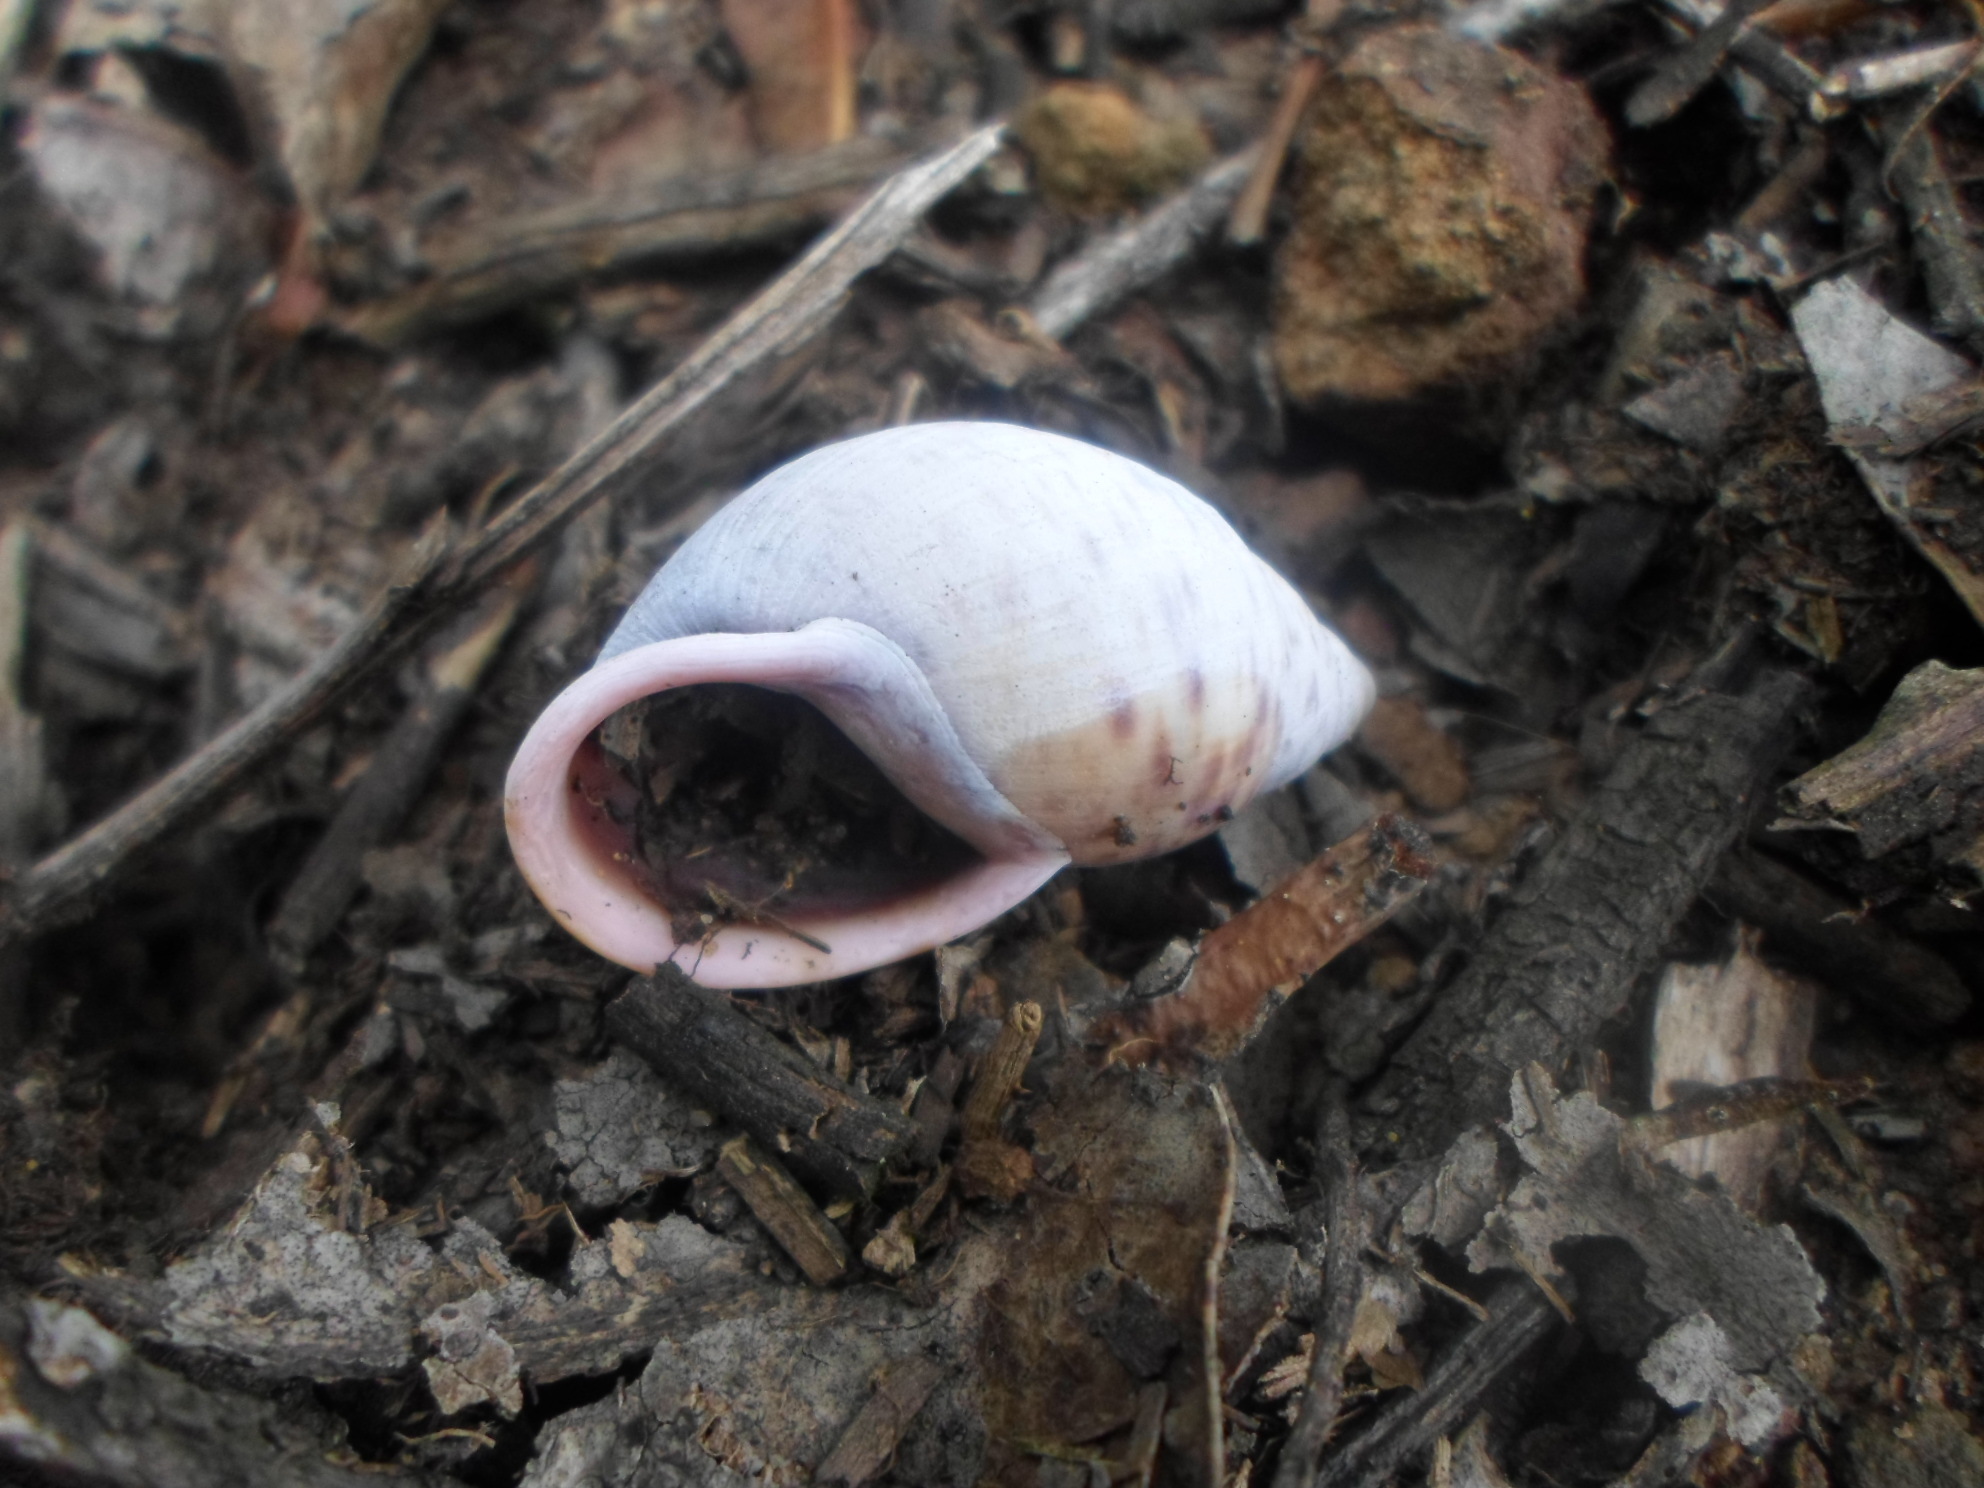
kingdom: Animalia
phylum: Mollusca
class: Gastropoda
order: Stylommatophora
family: Amphibulimidae
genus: Plekocheilus
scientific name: Plekocheilus
